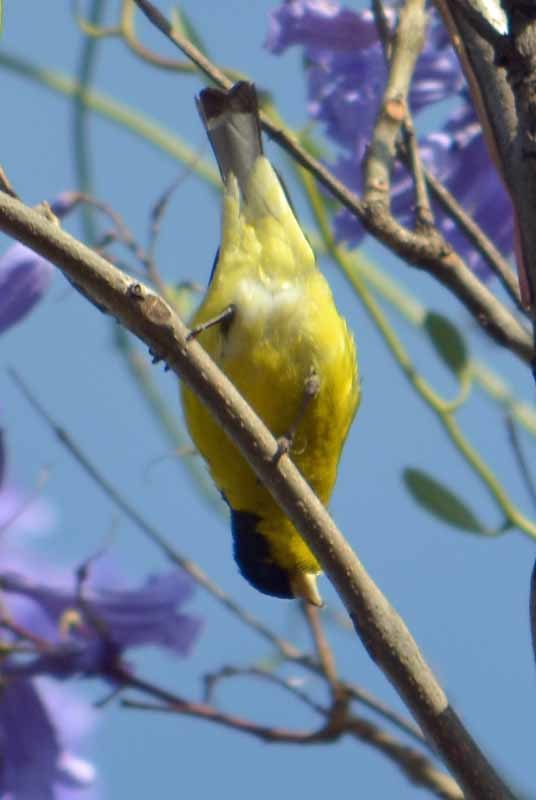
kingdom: Animalia
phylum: Chordata
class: Aves
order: Passeriformes
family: Fringillidae
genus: Spinus
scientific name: Spinus psaltria
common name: Lesser goldfinch
